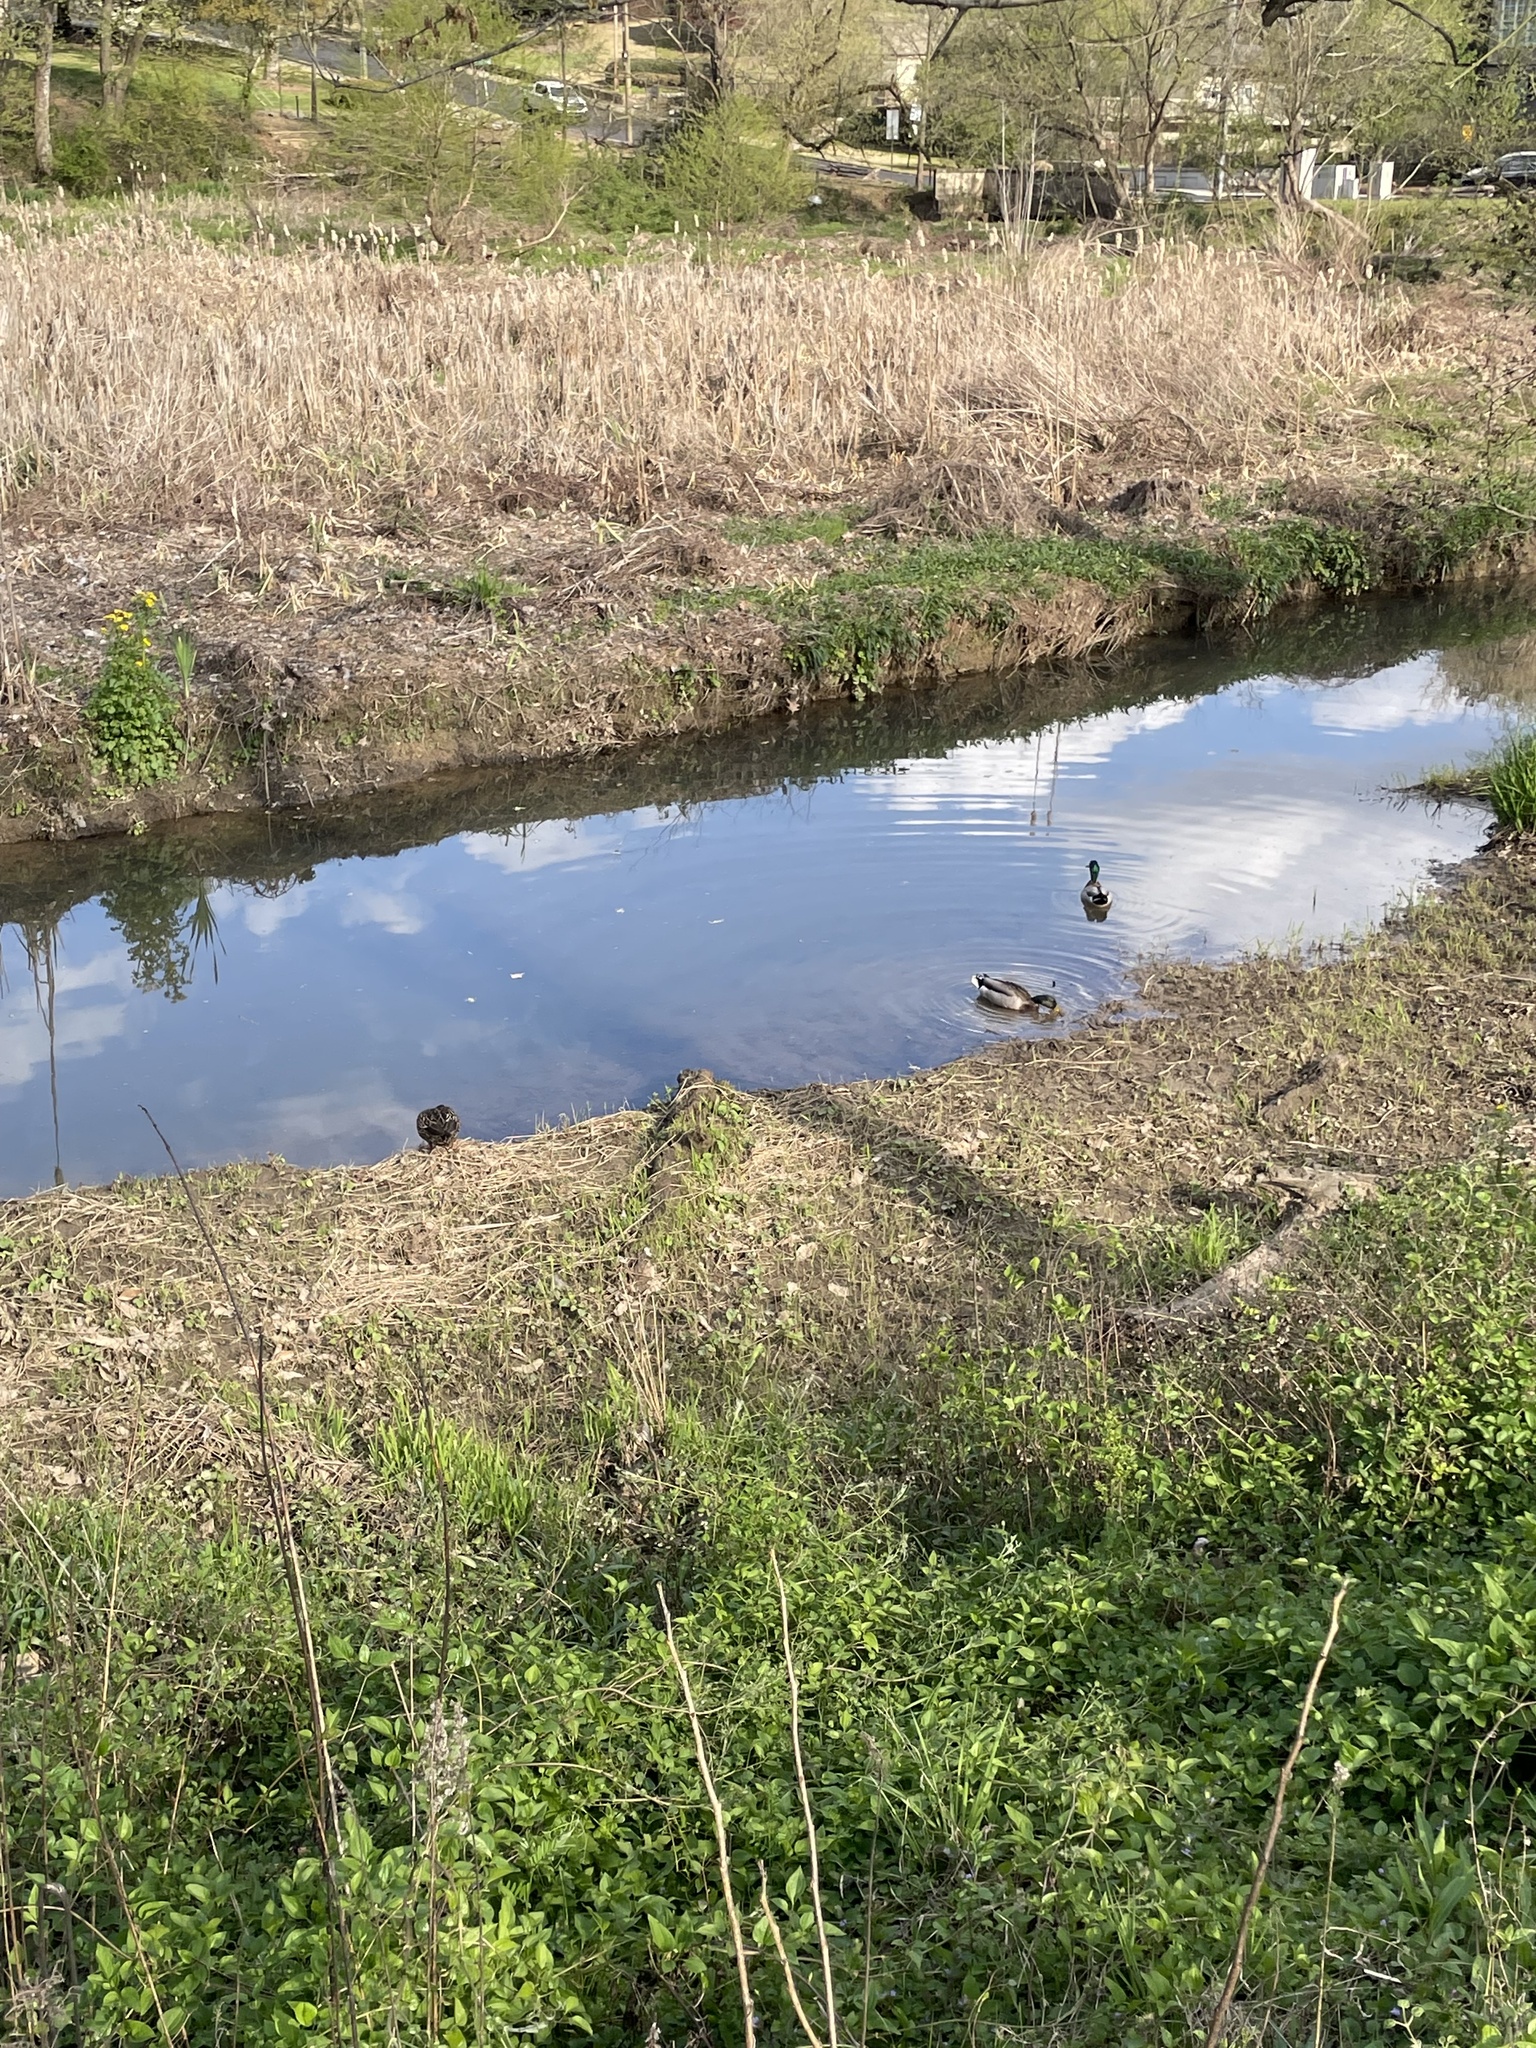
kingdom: Animalia
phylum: Chordata
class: Aves
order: Anseriformes
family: Anatidae
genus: Anas
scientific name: Anas platyrhynchos
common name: Mallard
